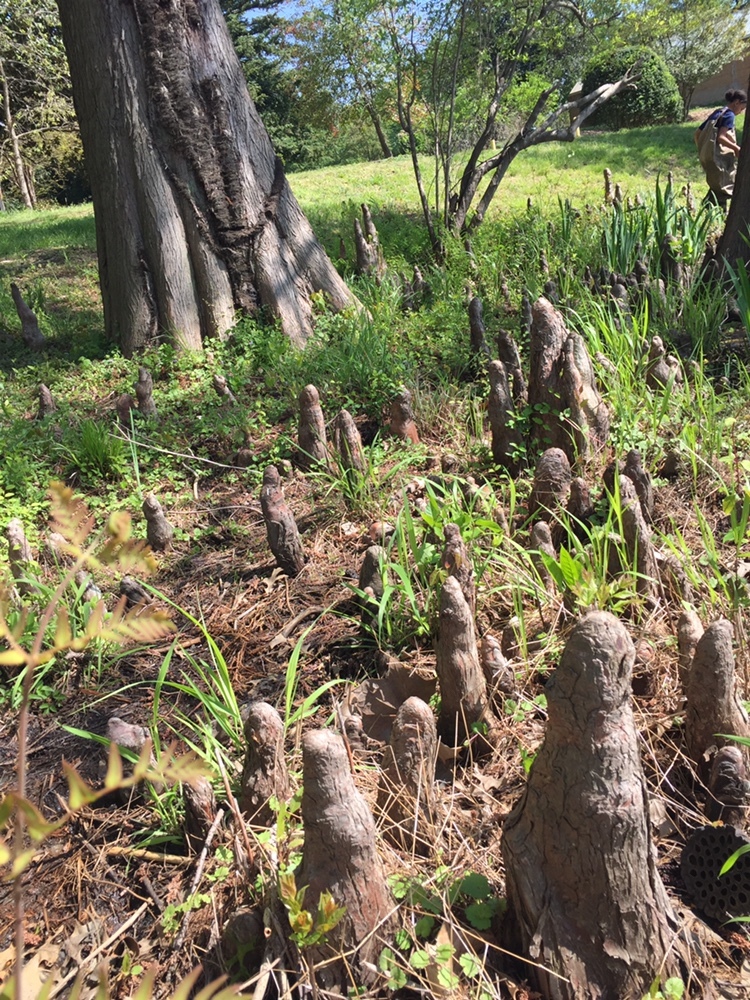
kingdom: Plantae
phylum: Tracheophyta
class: Pinopsida
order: Pinales
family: Cupressaceae
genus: Taxodium
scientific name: Taxodium distichum
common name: Bald cypress
